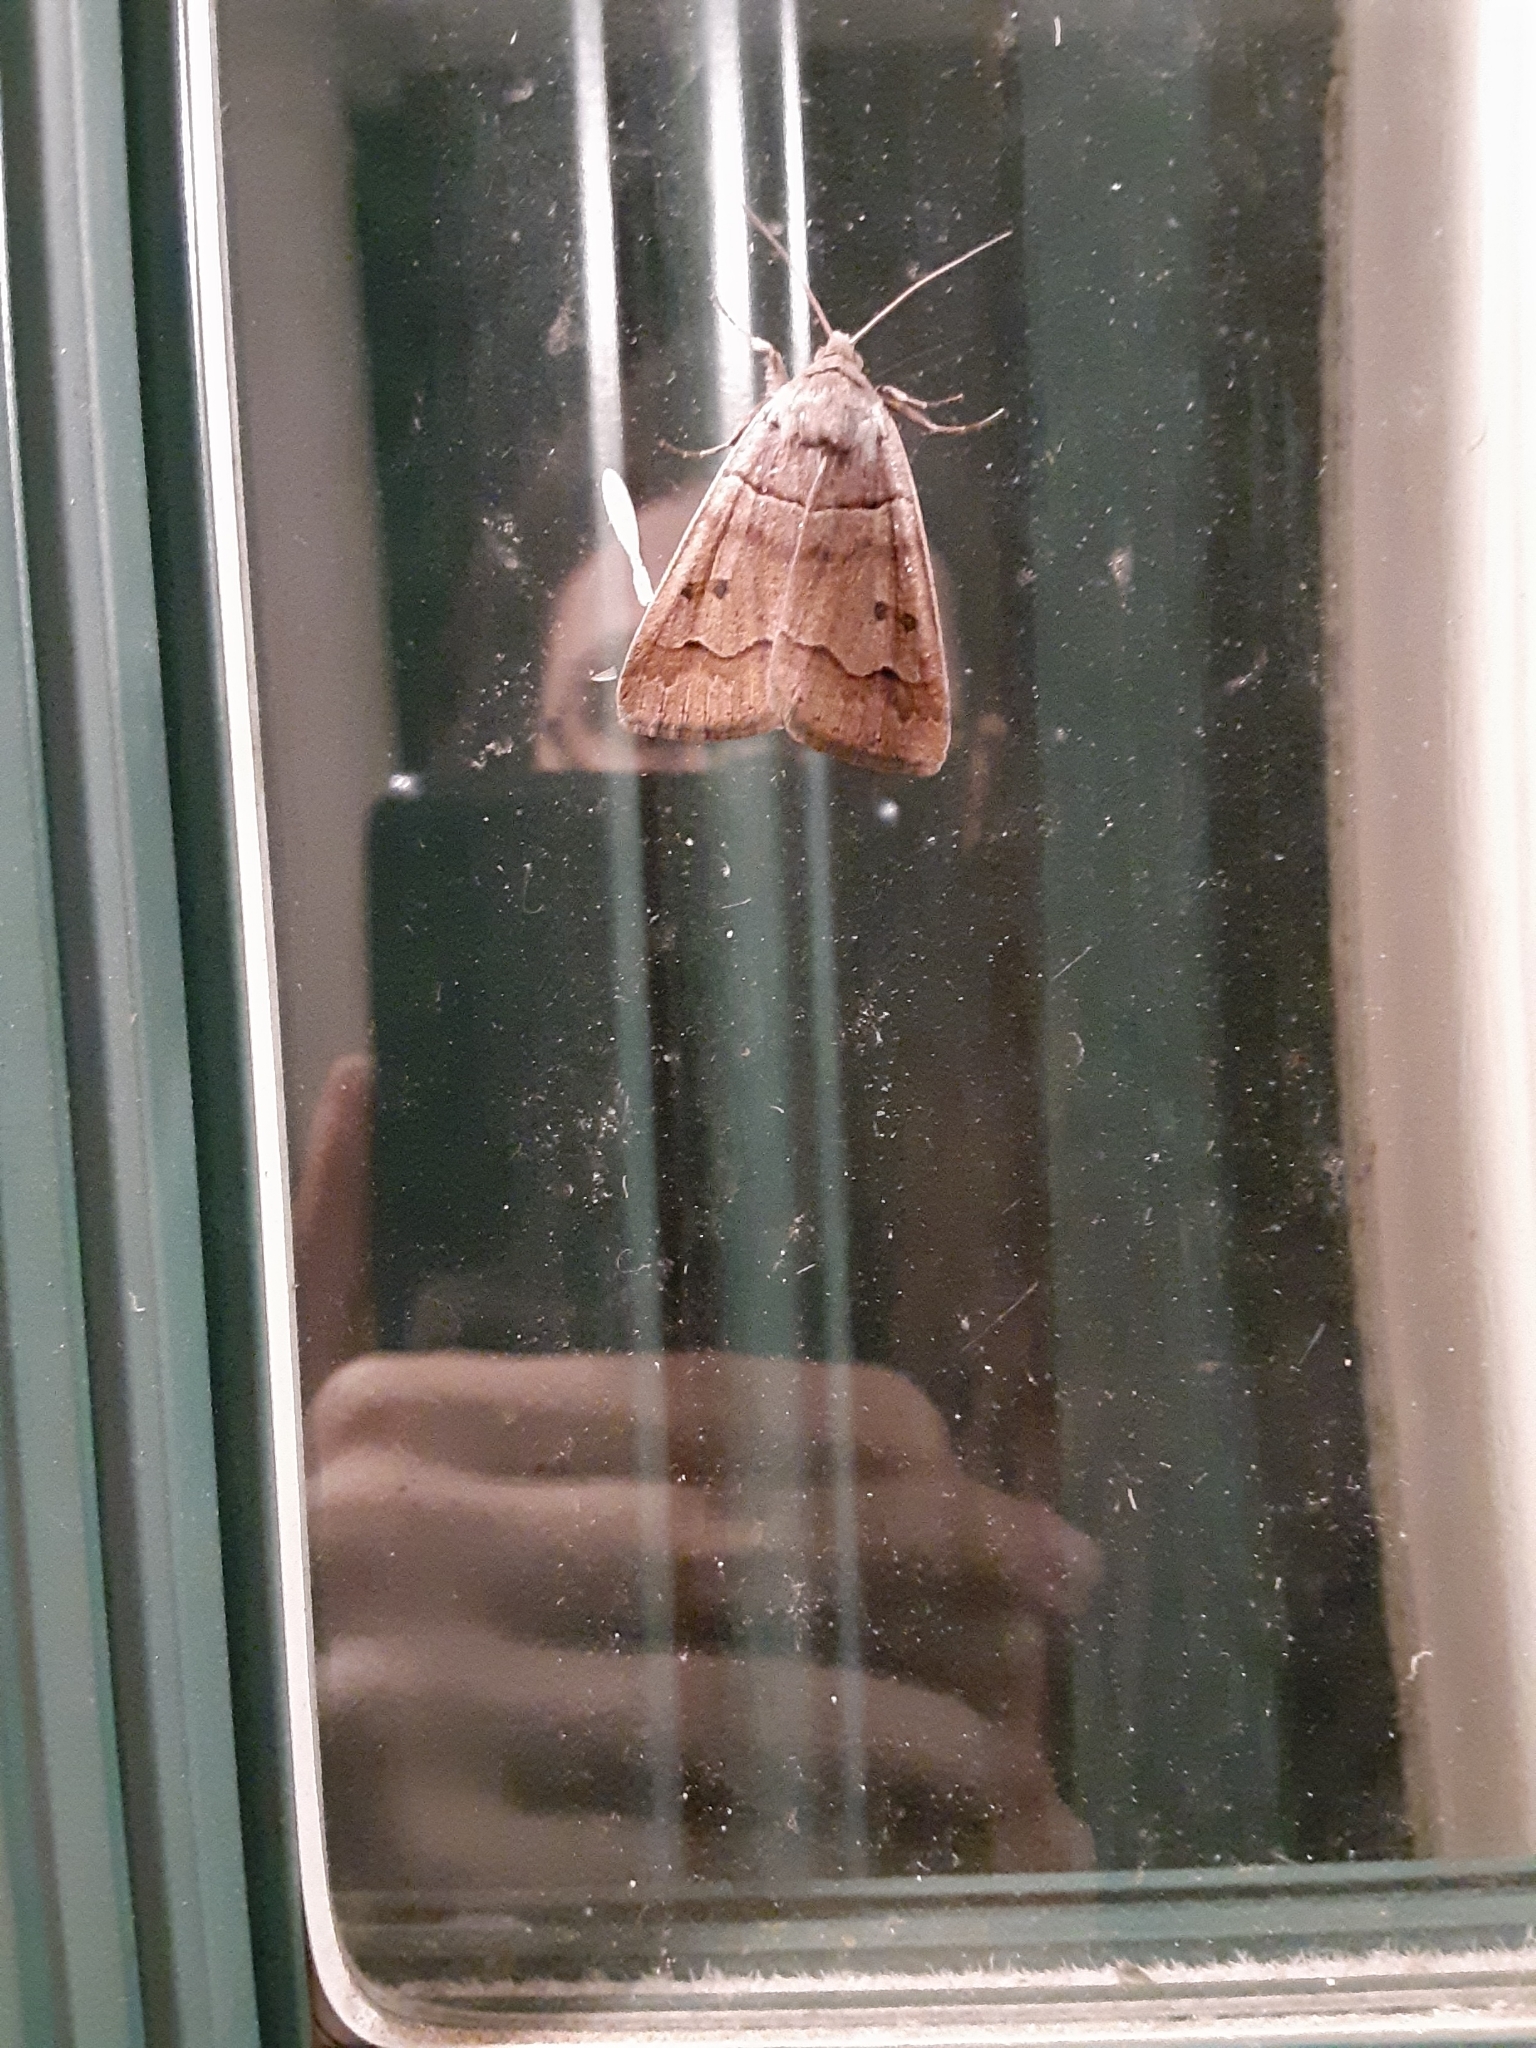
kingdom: Animalia
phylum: Arthropoda
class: Insecta
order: Lepidoptera
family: Erebidae
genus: Phoberia
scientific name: Phoberia atomaris
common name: Common oak moth
